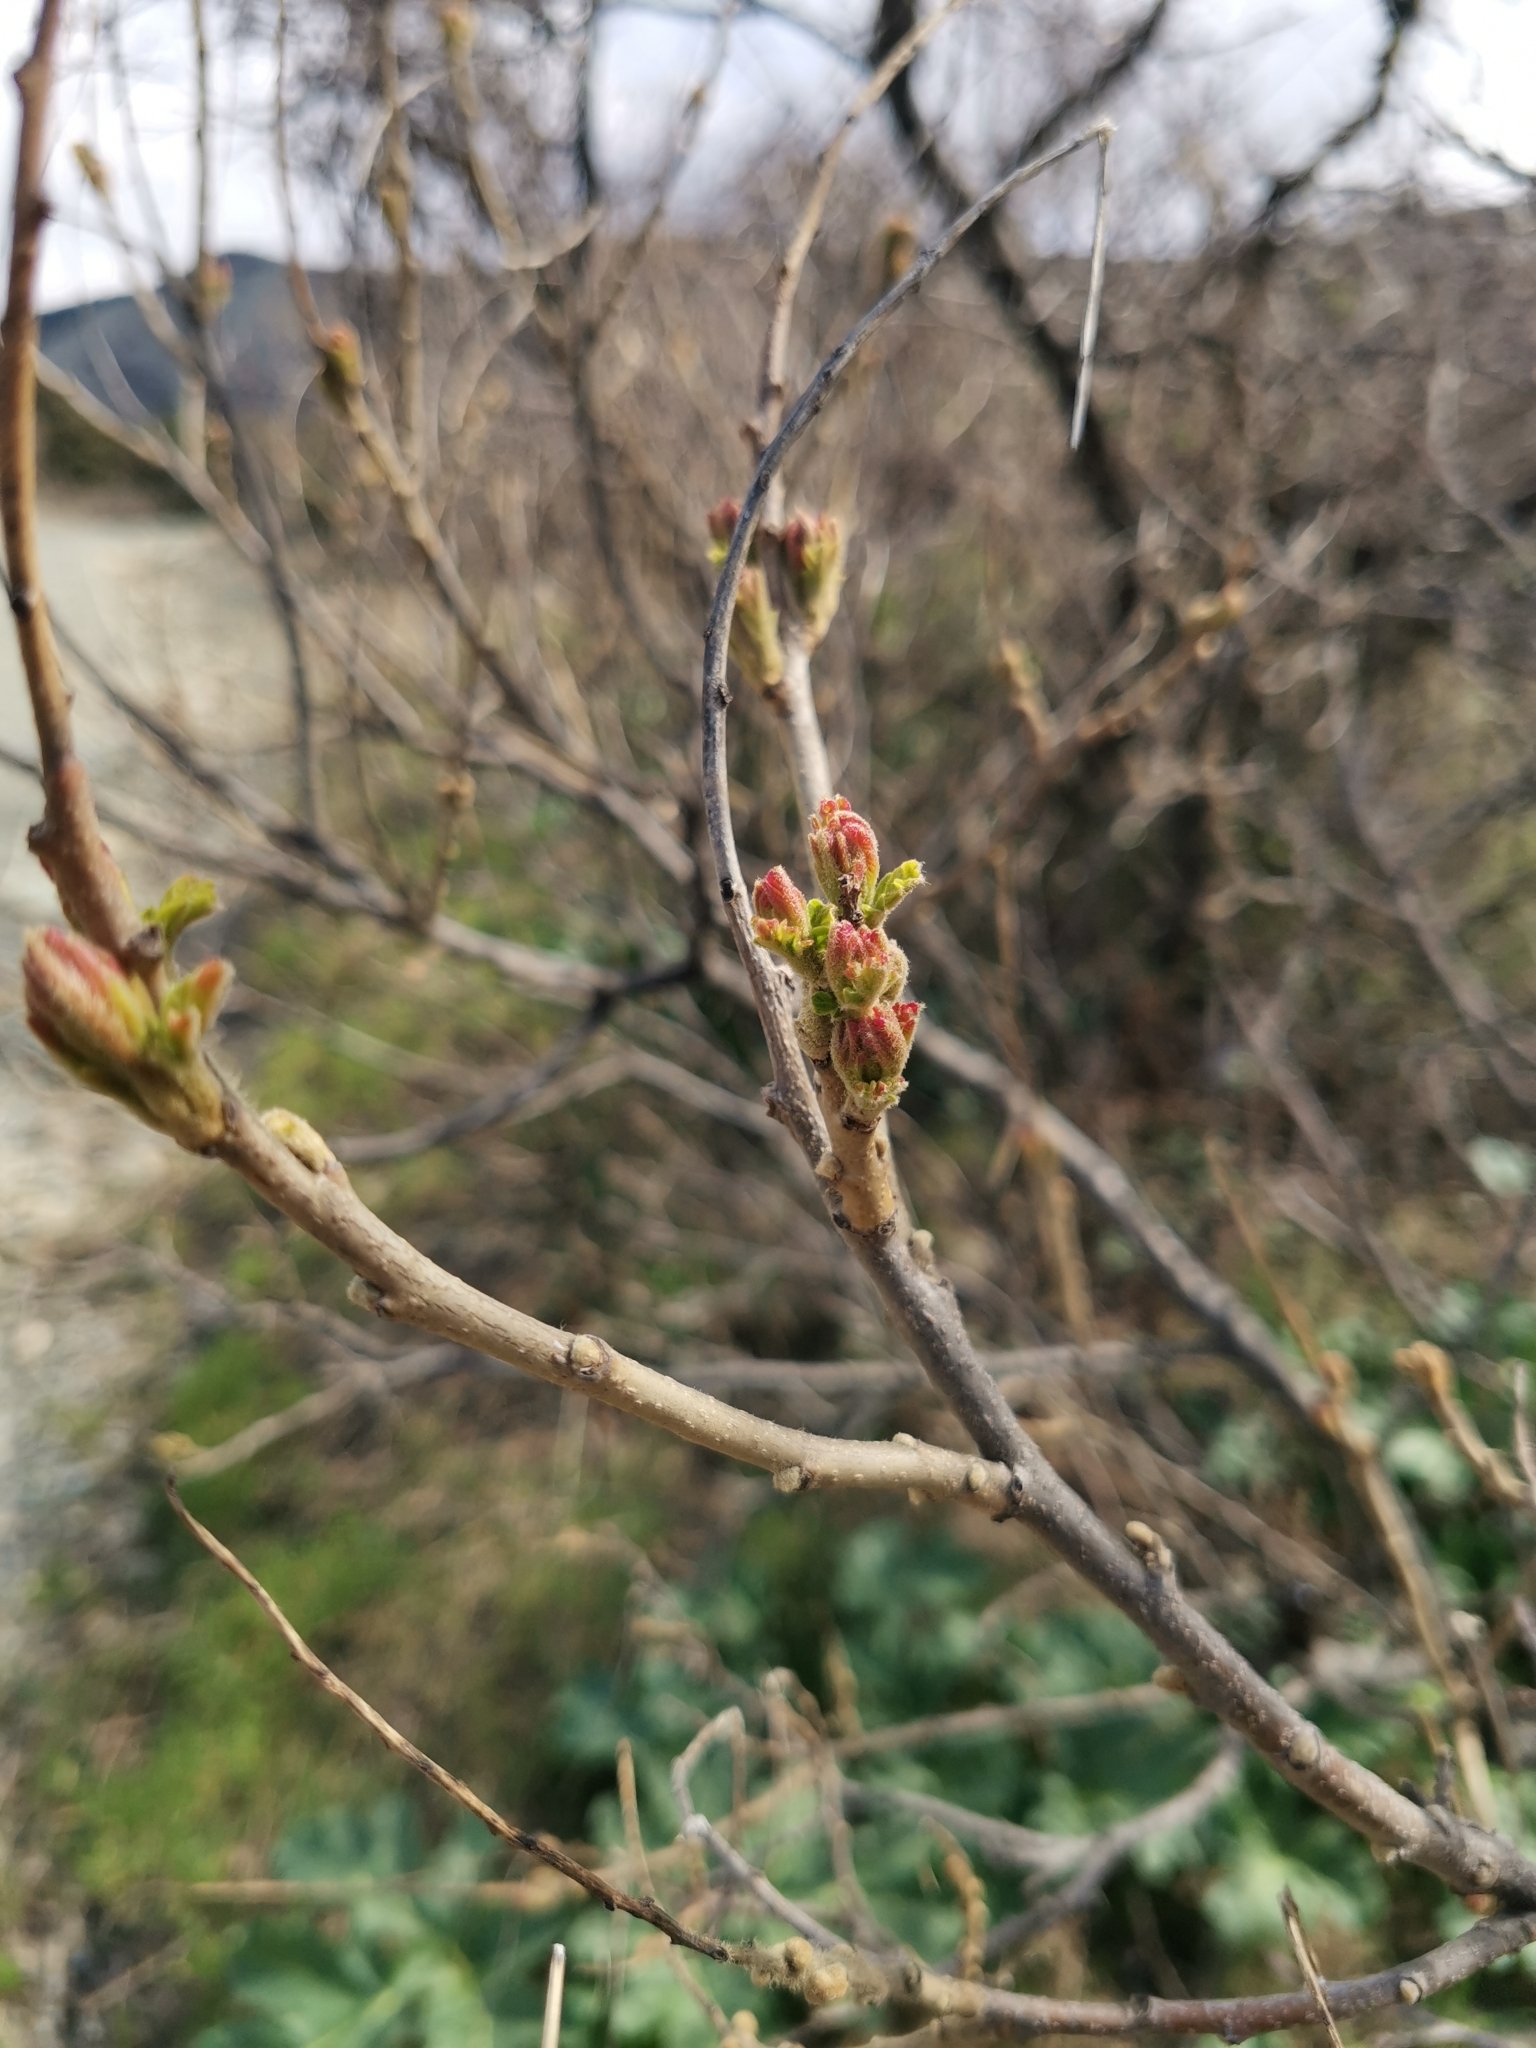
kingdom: Plantae
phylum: Tracheophyta
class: Magnoliopsida
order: Sapindales
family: Anacardiaceae
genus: Rhus
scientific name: Rhus coriaria
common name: Tanner's sumach
